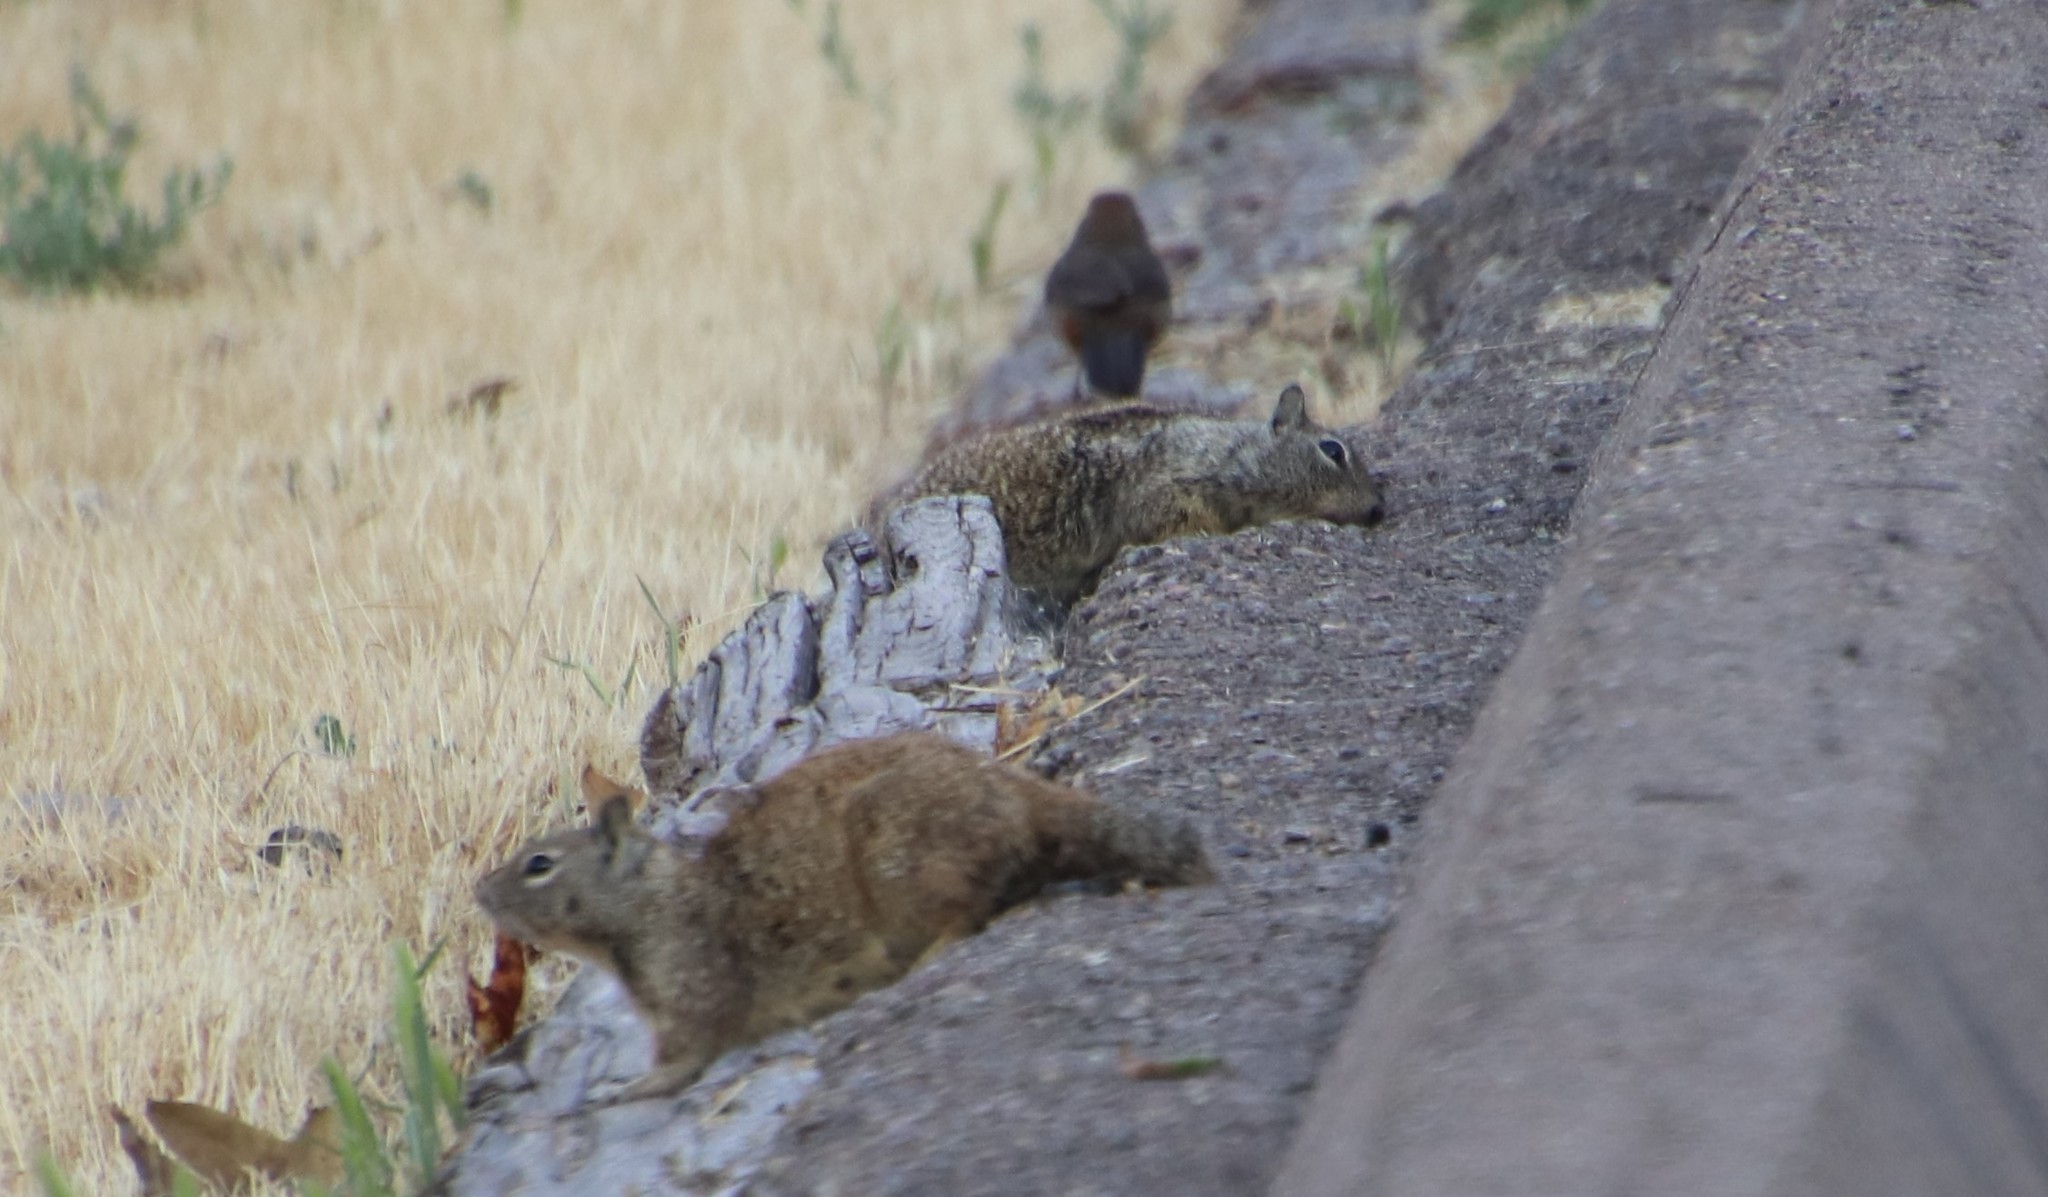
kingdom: Animalia
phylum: Chordata
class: Mammalia
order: Rodentia
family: Sciuridae
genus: Otospermophilus
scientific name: Otospermophilus beecheyi
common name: California ground squirrel
